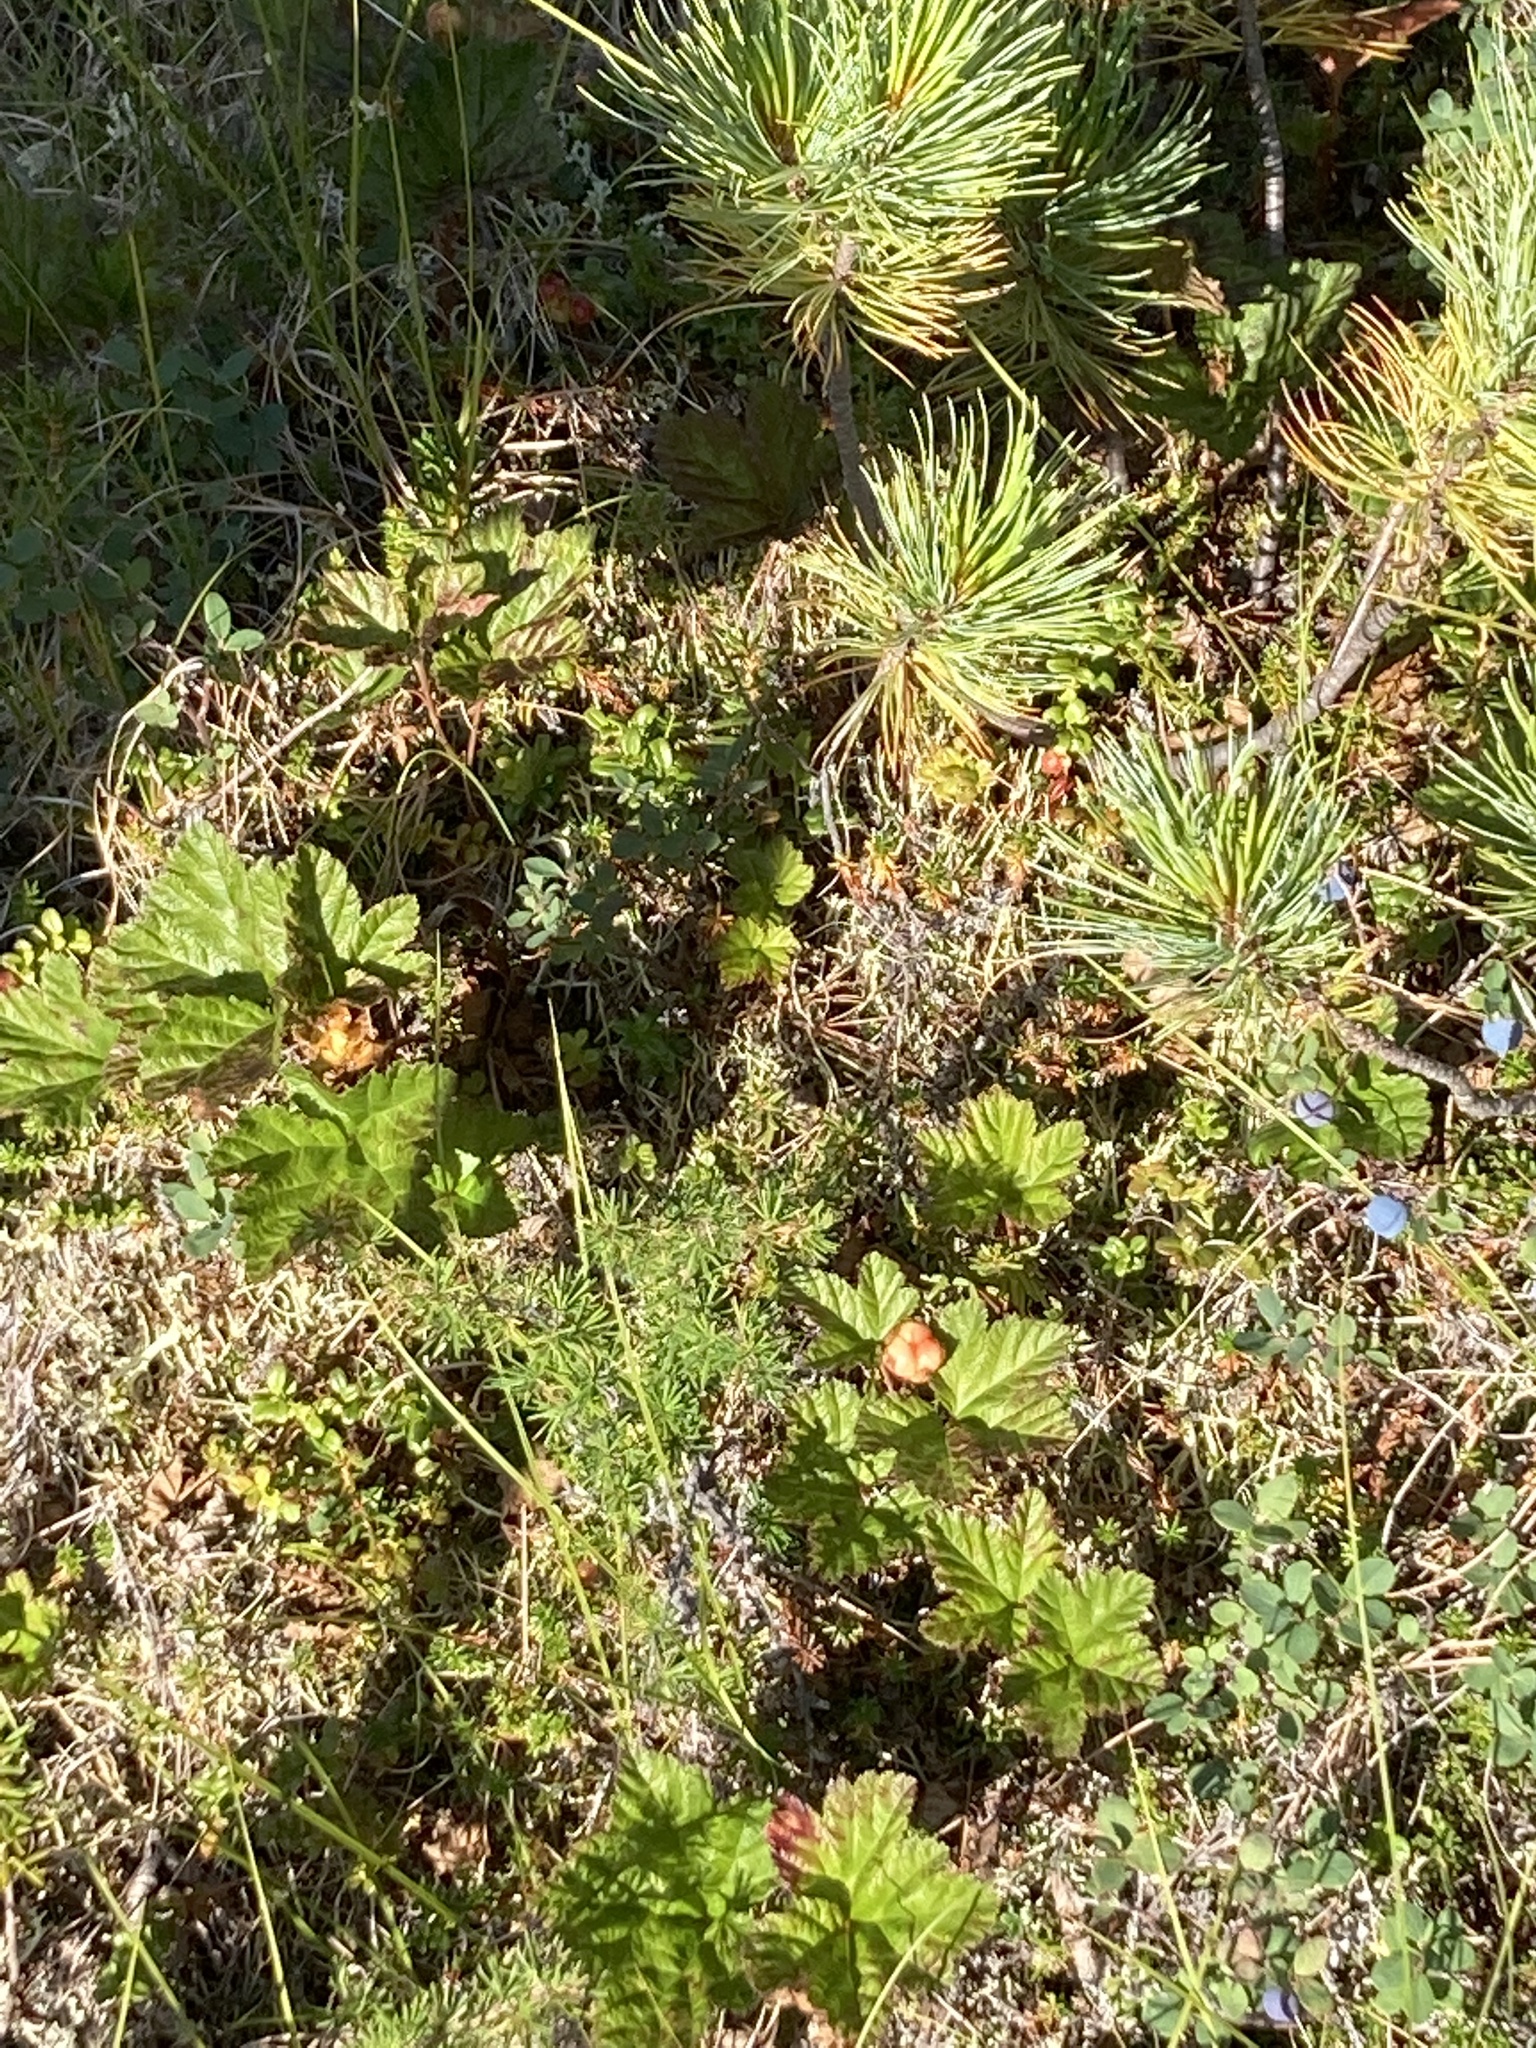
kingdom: Plantae
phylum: Tracheophyta
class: Magnoliopsida
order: Rosales
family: Rosaceae
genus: Rubus
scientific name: Rubus chamaemorus
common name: Cloudberry
